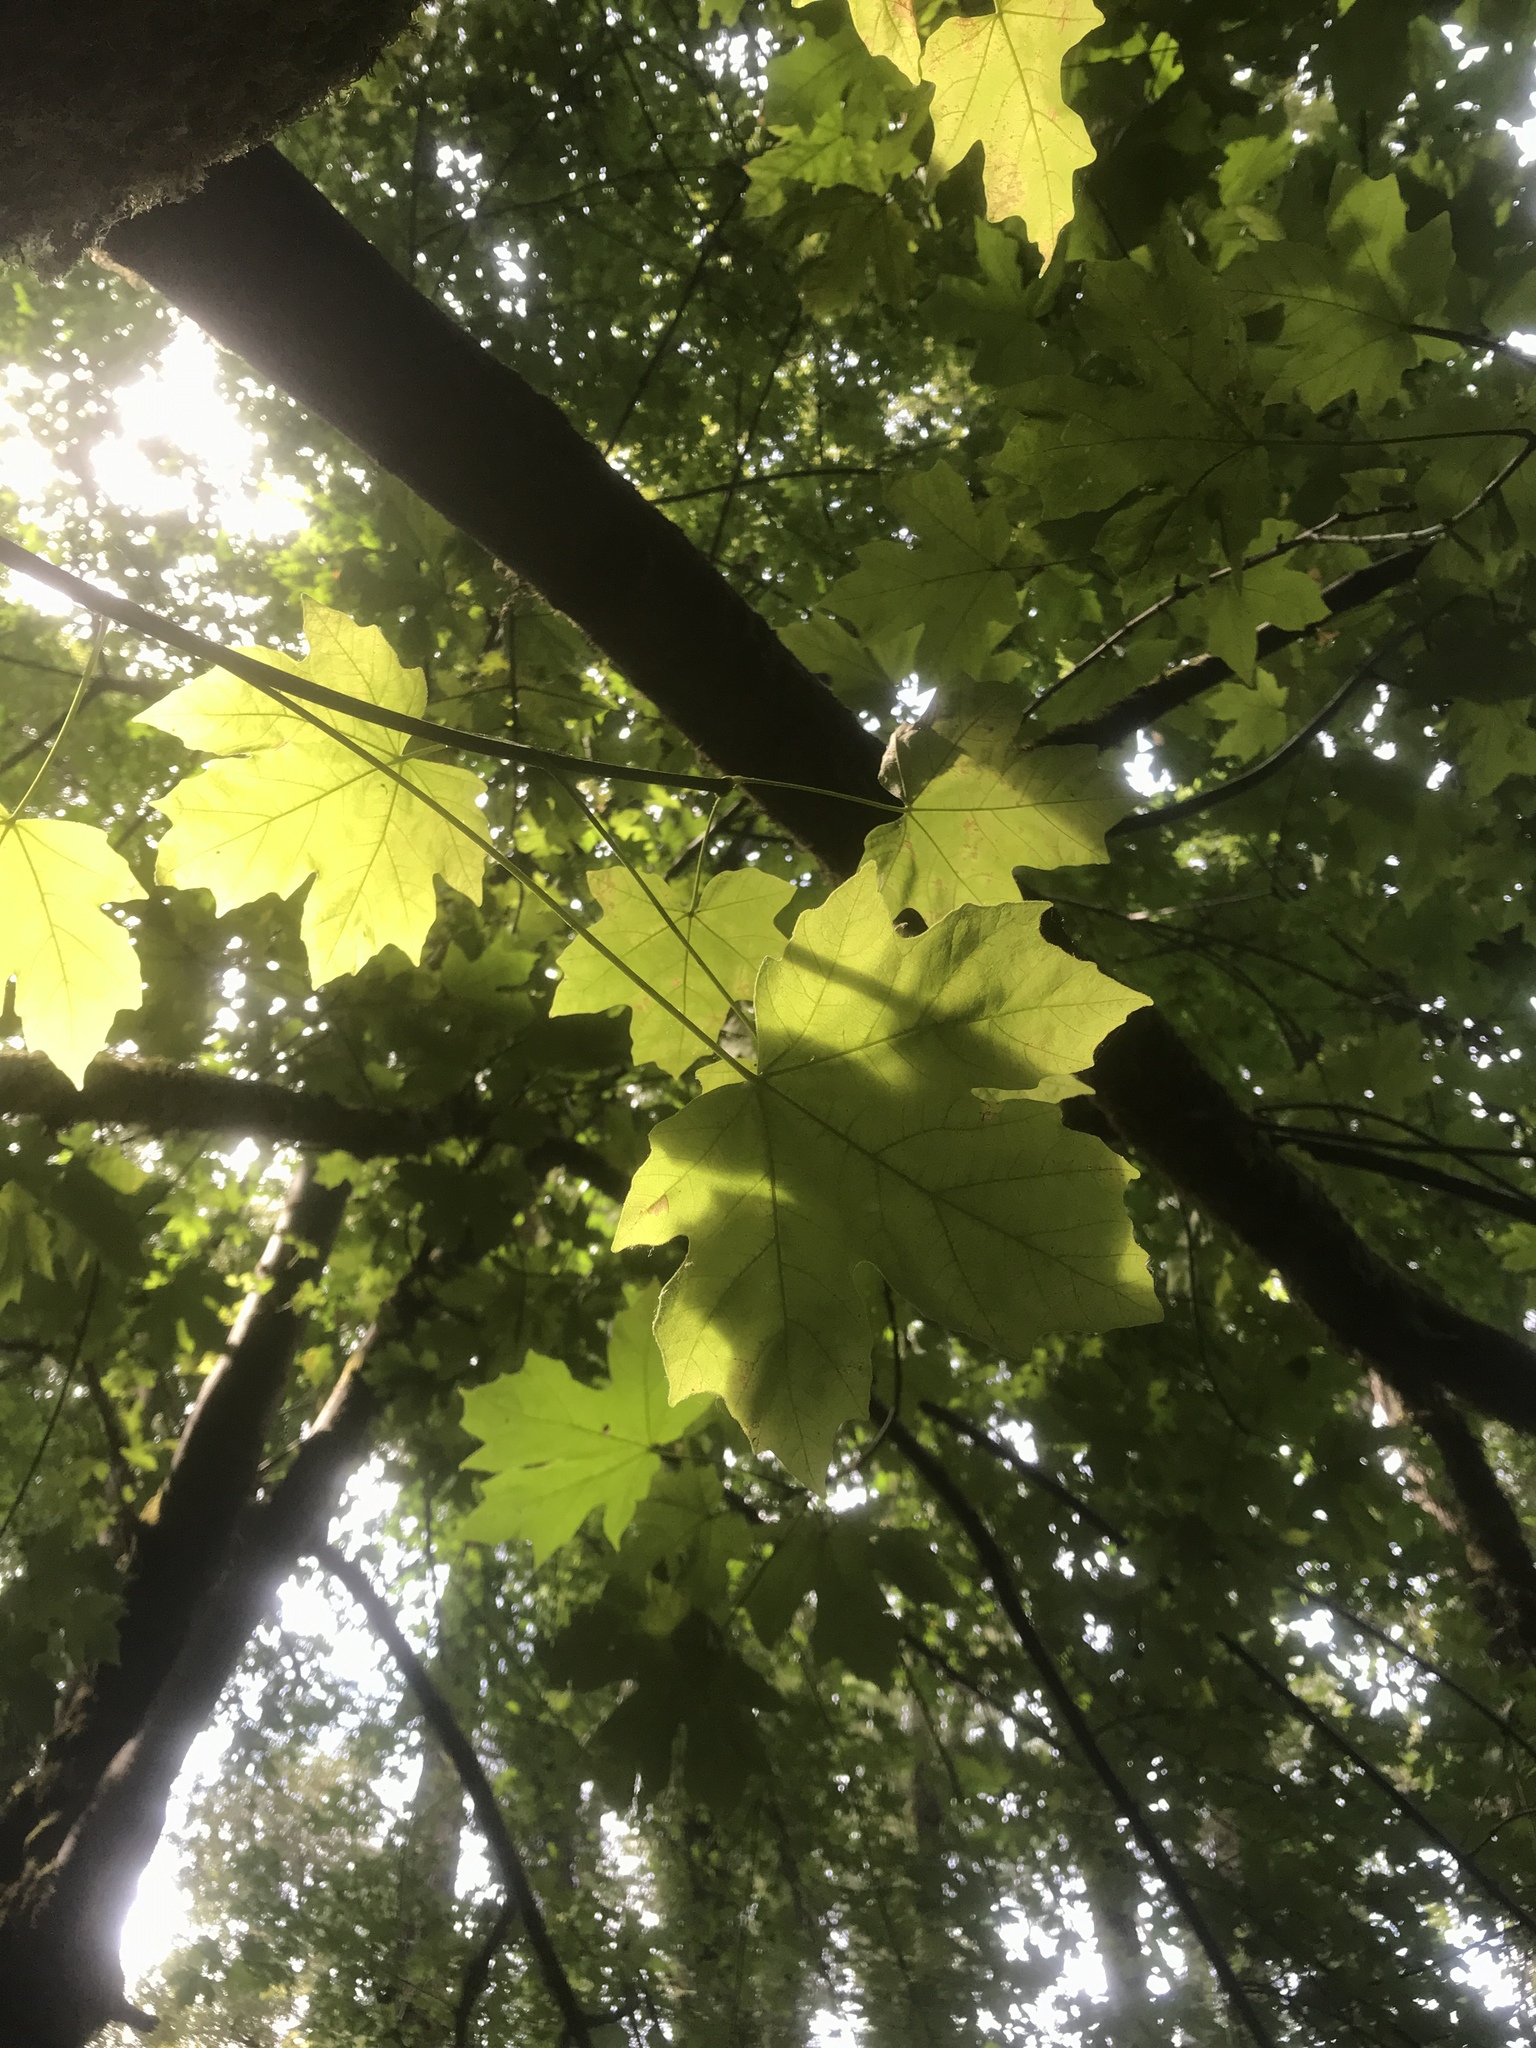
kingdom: Plantae
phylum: Tracheophyta
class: Magnoliopsida
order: Sapindales
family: Sapindaceae
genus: Acer
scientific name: Acer macrophyllum
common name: Oregon maple
